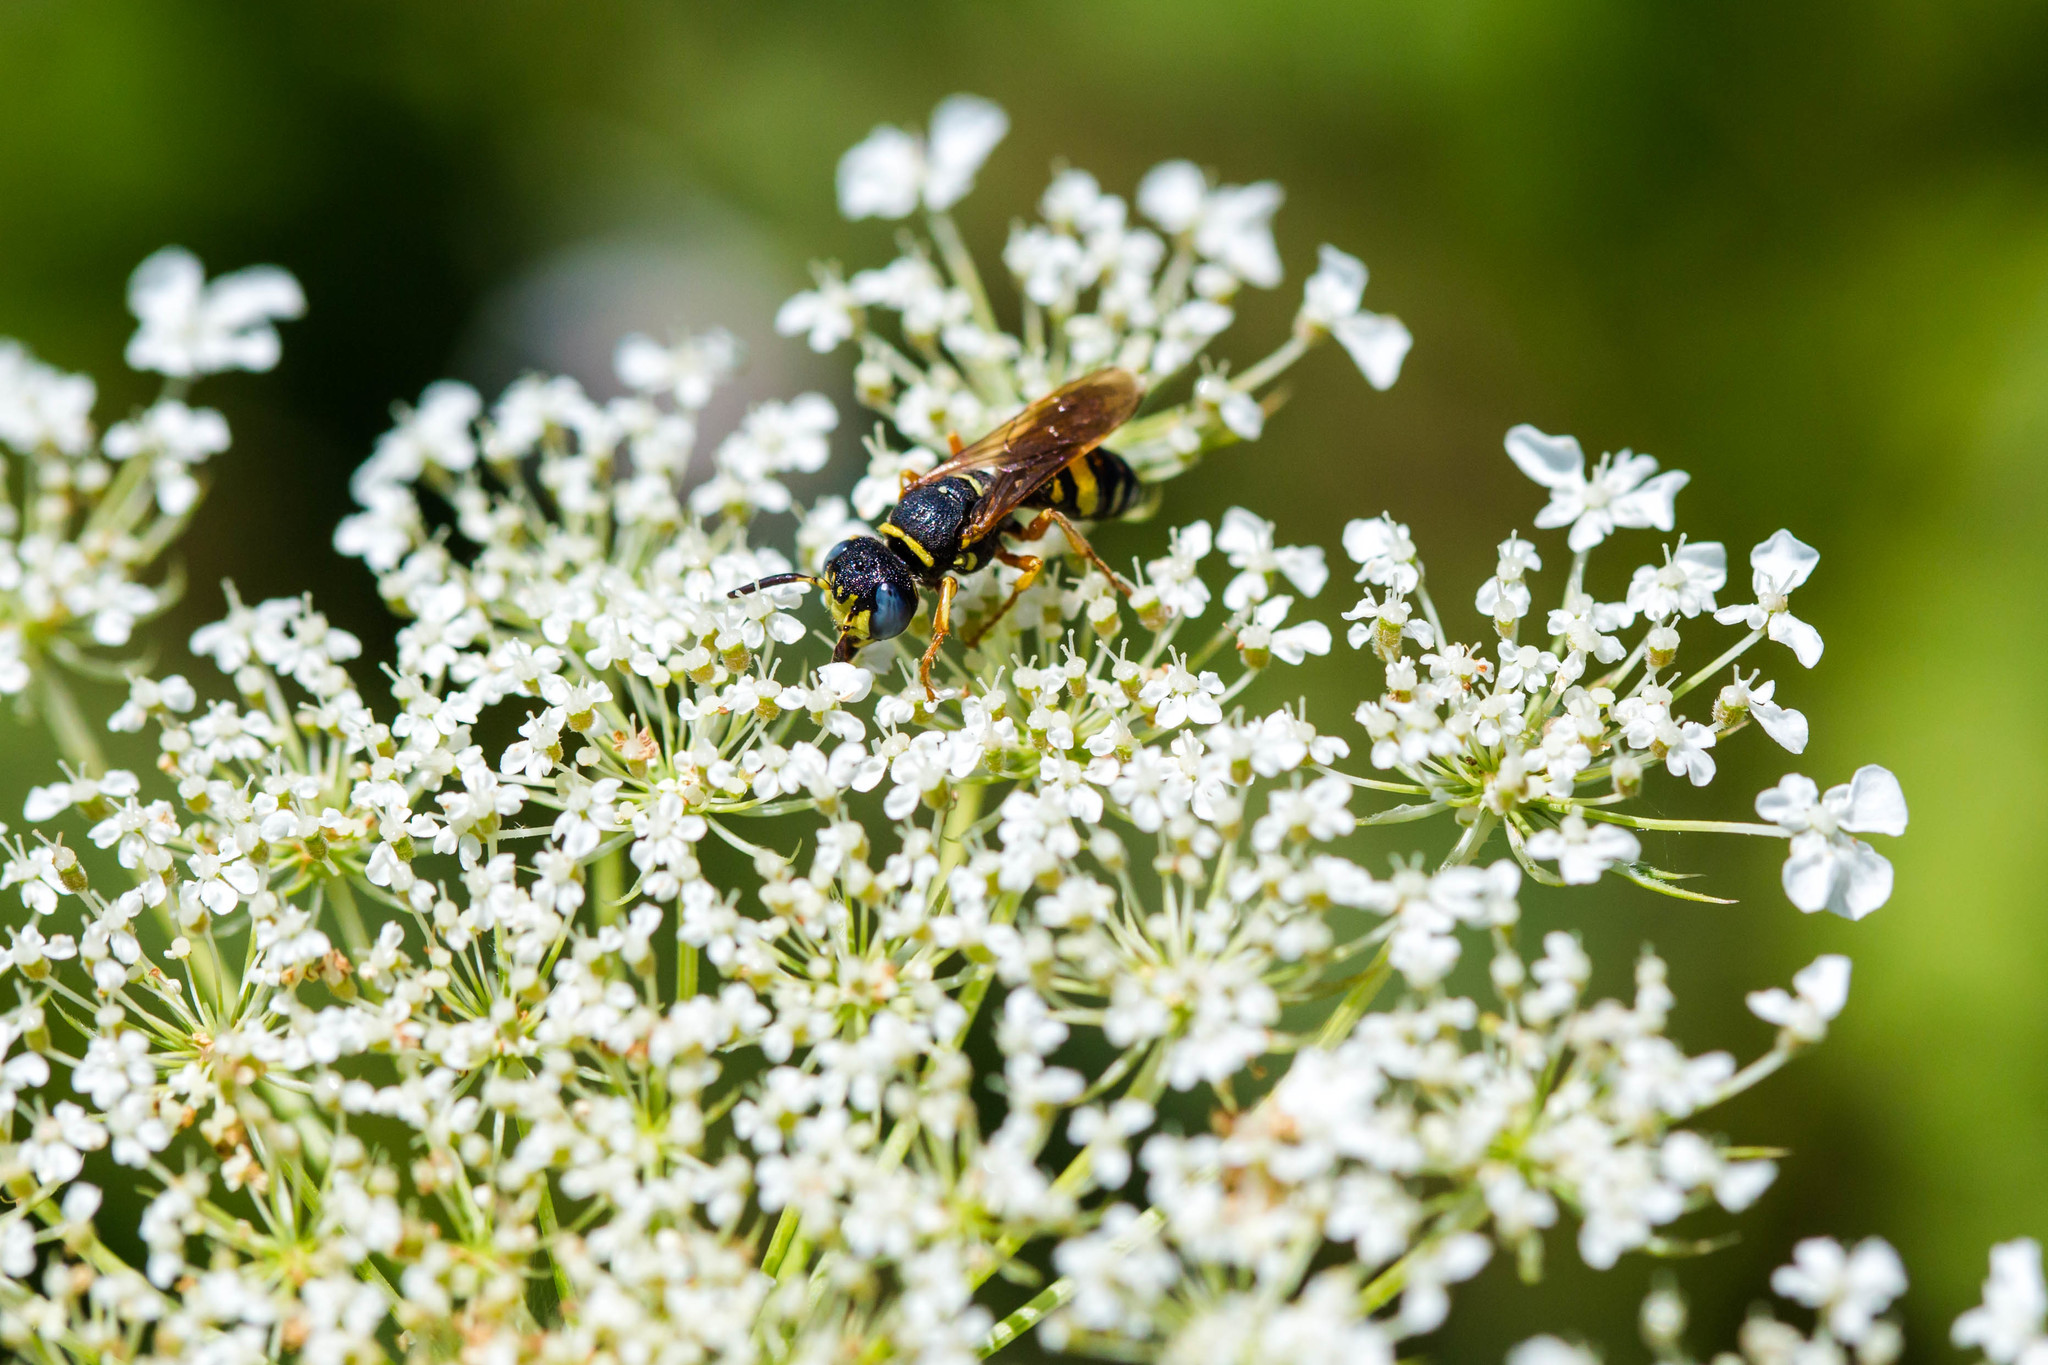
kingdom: Animalia
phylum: Arthropoda
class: Insecta
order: Hymenoptera
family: Crabronidae
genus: Philanthus
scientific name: Philanthus ventilabris
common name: Bee-killer wasp
